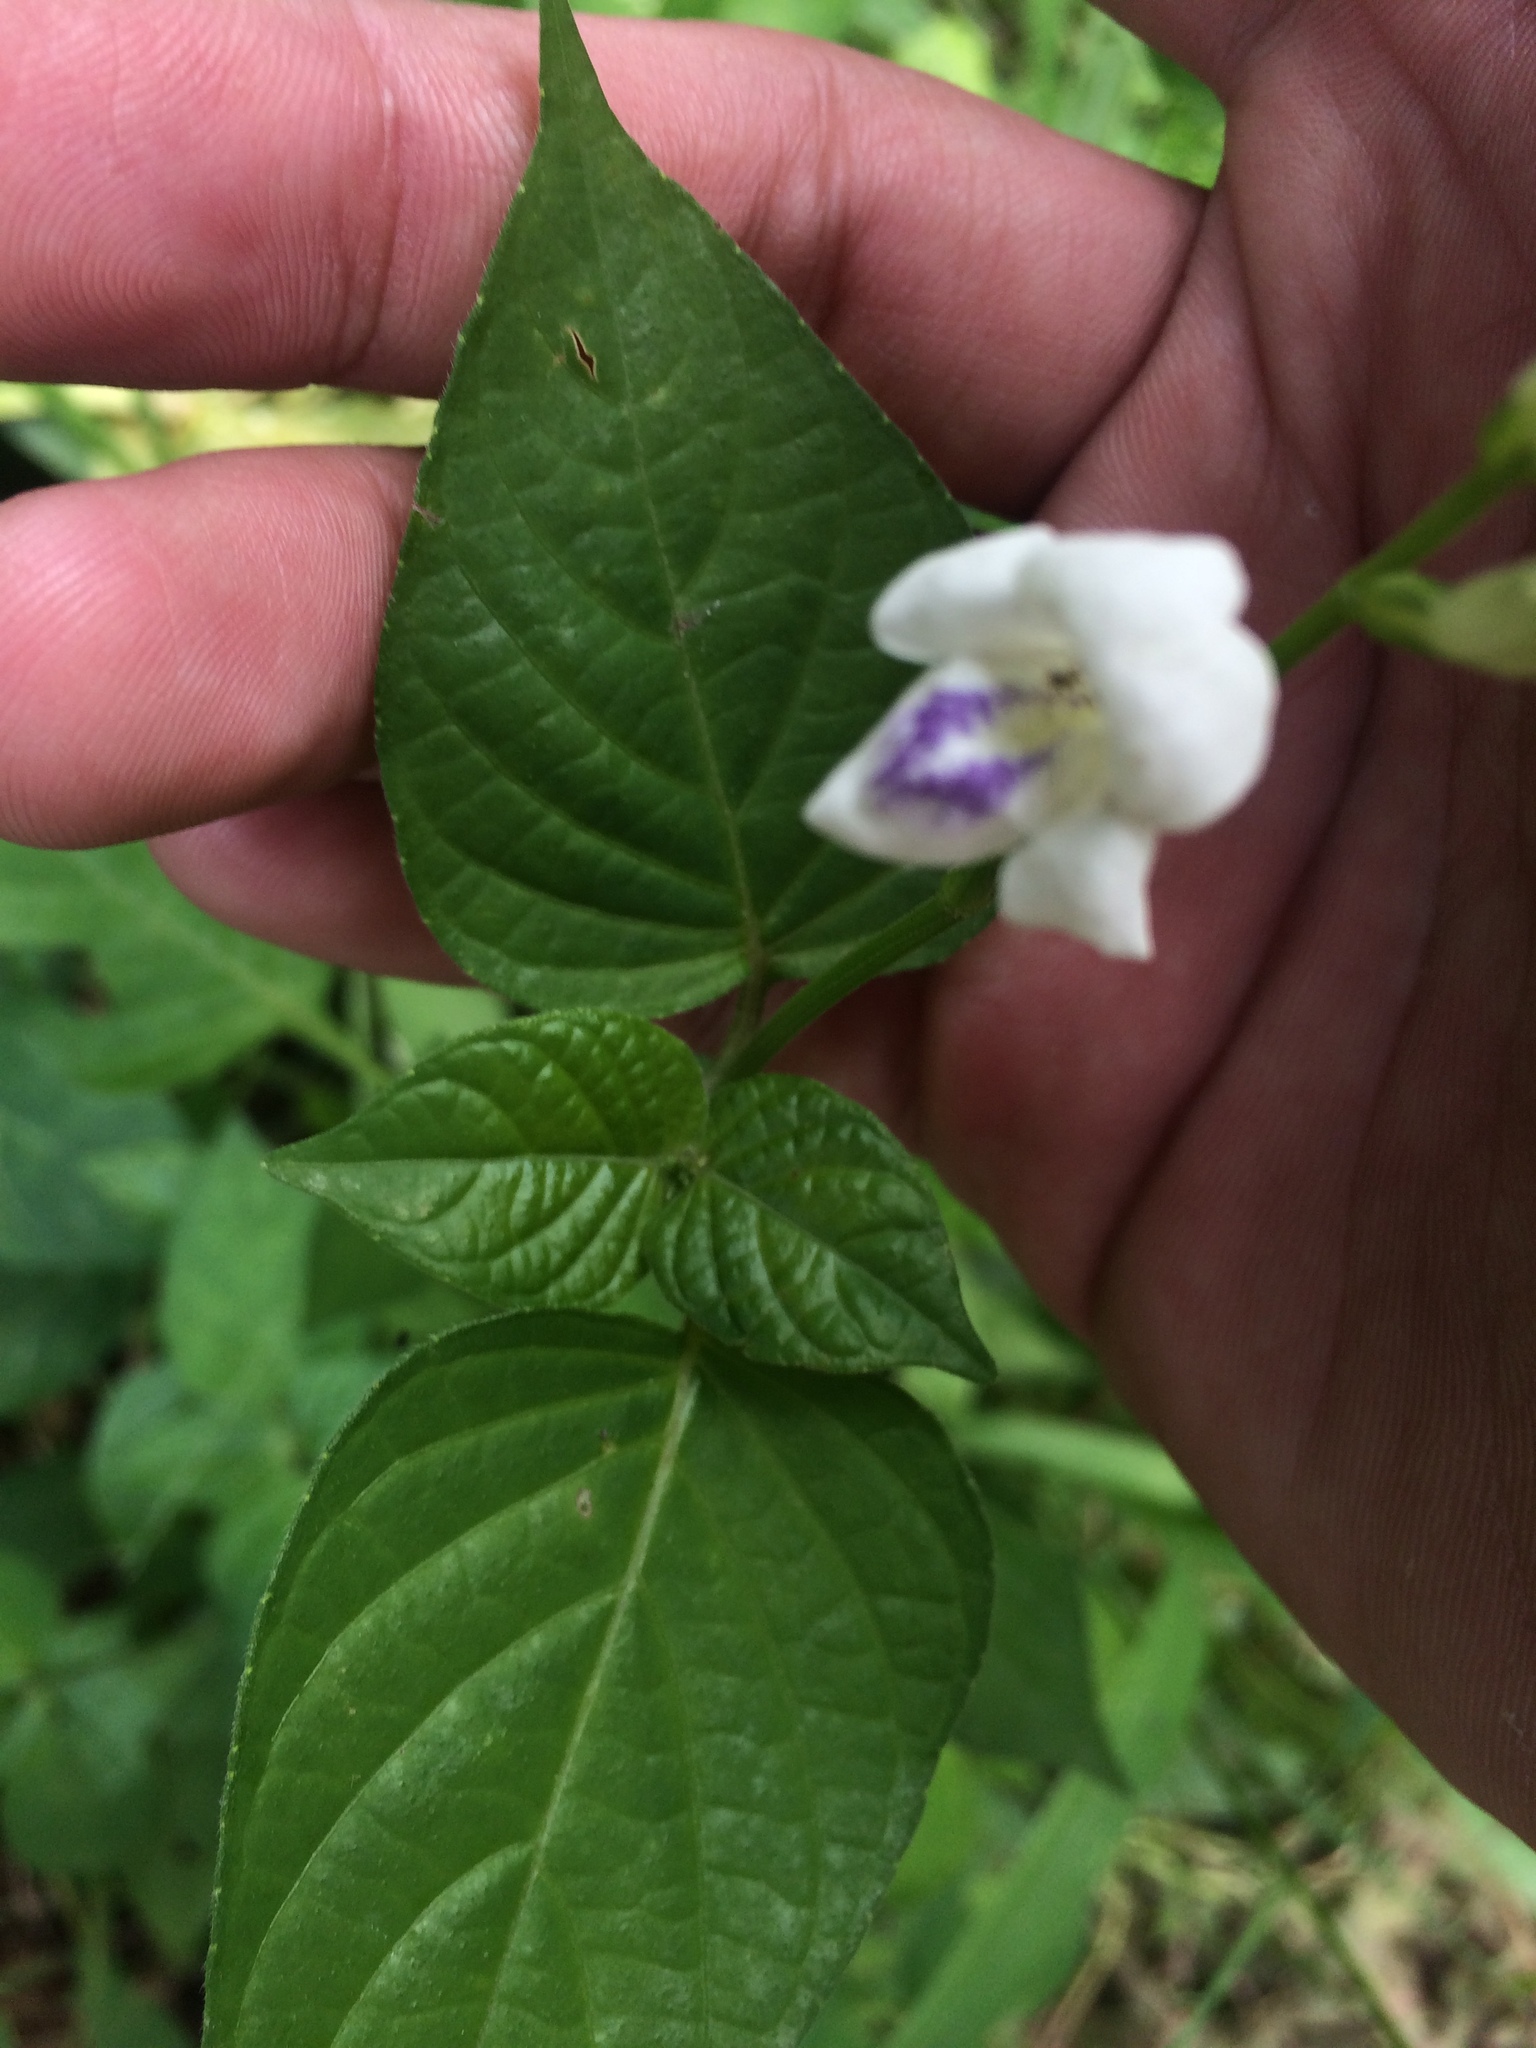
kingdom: Plantae
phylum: Tracheophyta
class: Magnoliopsida
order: Lamiales
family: Acanthaceae
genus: Asystasia
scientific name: Asystasia intrusa
